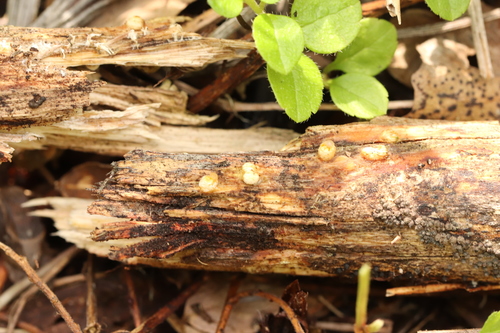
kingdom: Fungi
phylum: Basidiomycota
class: Agaricomycetes
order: Geastrales
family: Geastraceae
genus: Sphaerobolus
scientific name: Sphaerobolus stellatus
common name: Cannon fungus
